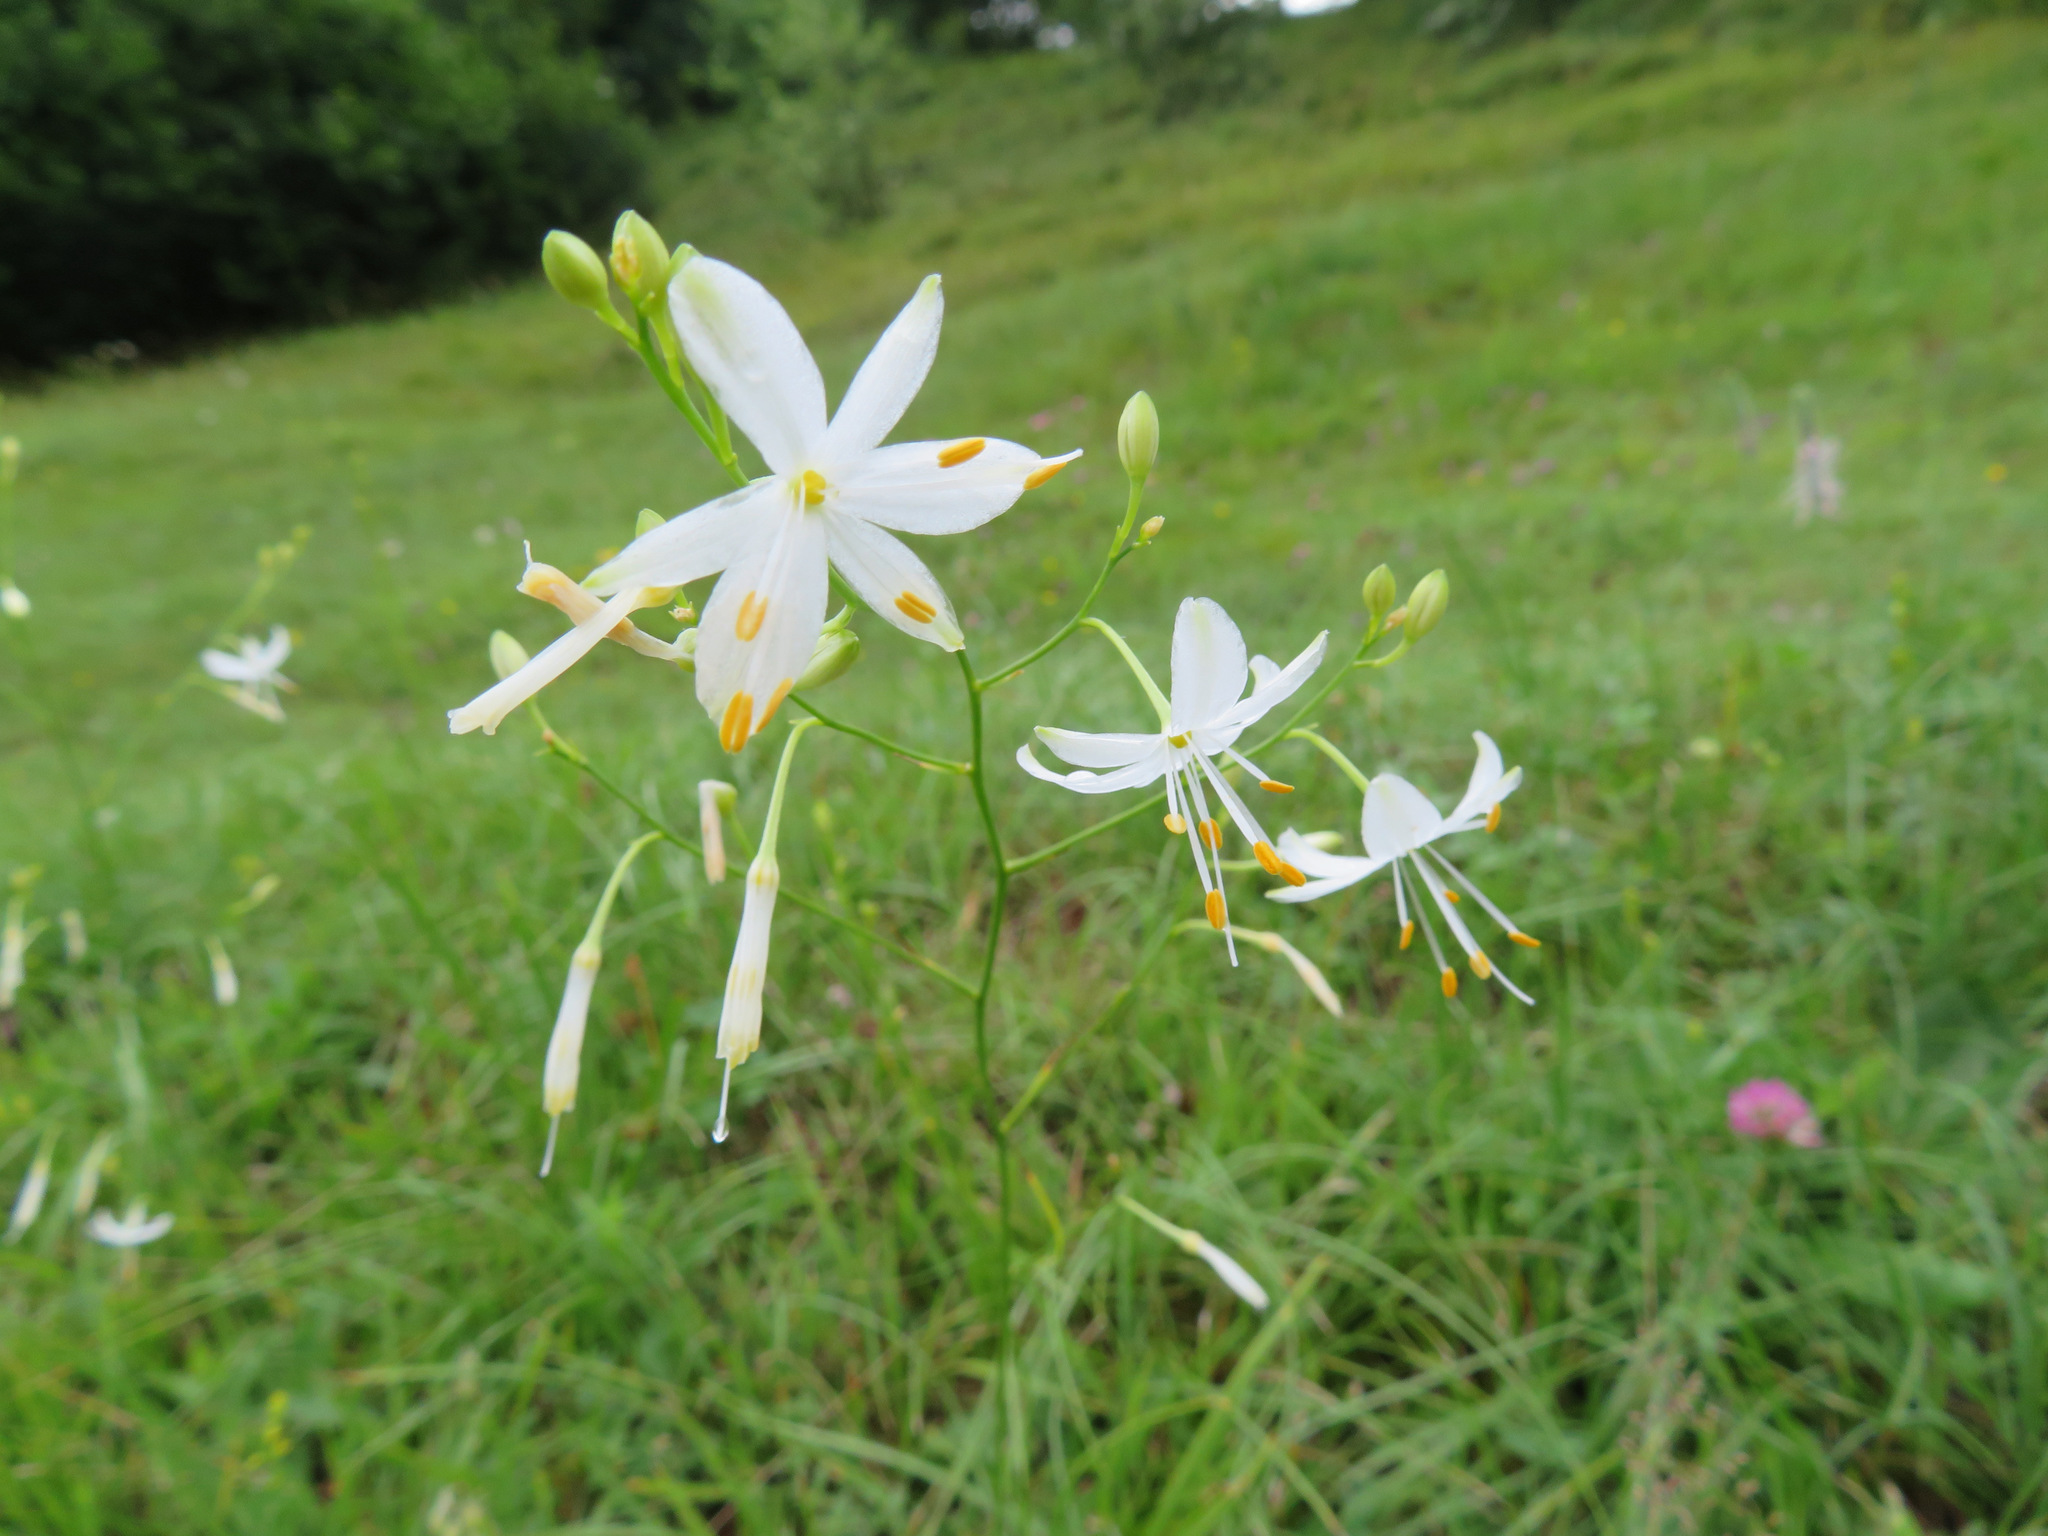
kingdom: Plantae
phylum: Tracheophyta
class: Liliopsida
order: Asparagales
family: Asparagaceae
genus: Anthericum
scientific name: Anthericum ramosum
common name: Branched st. bernard's-lily
